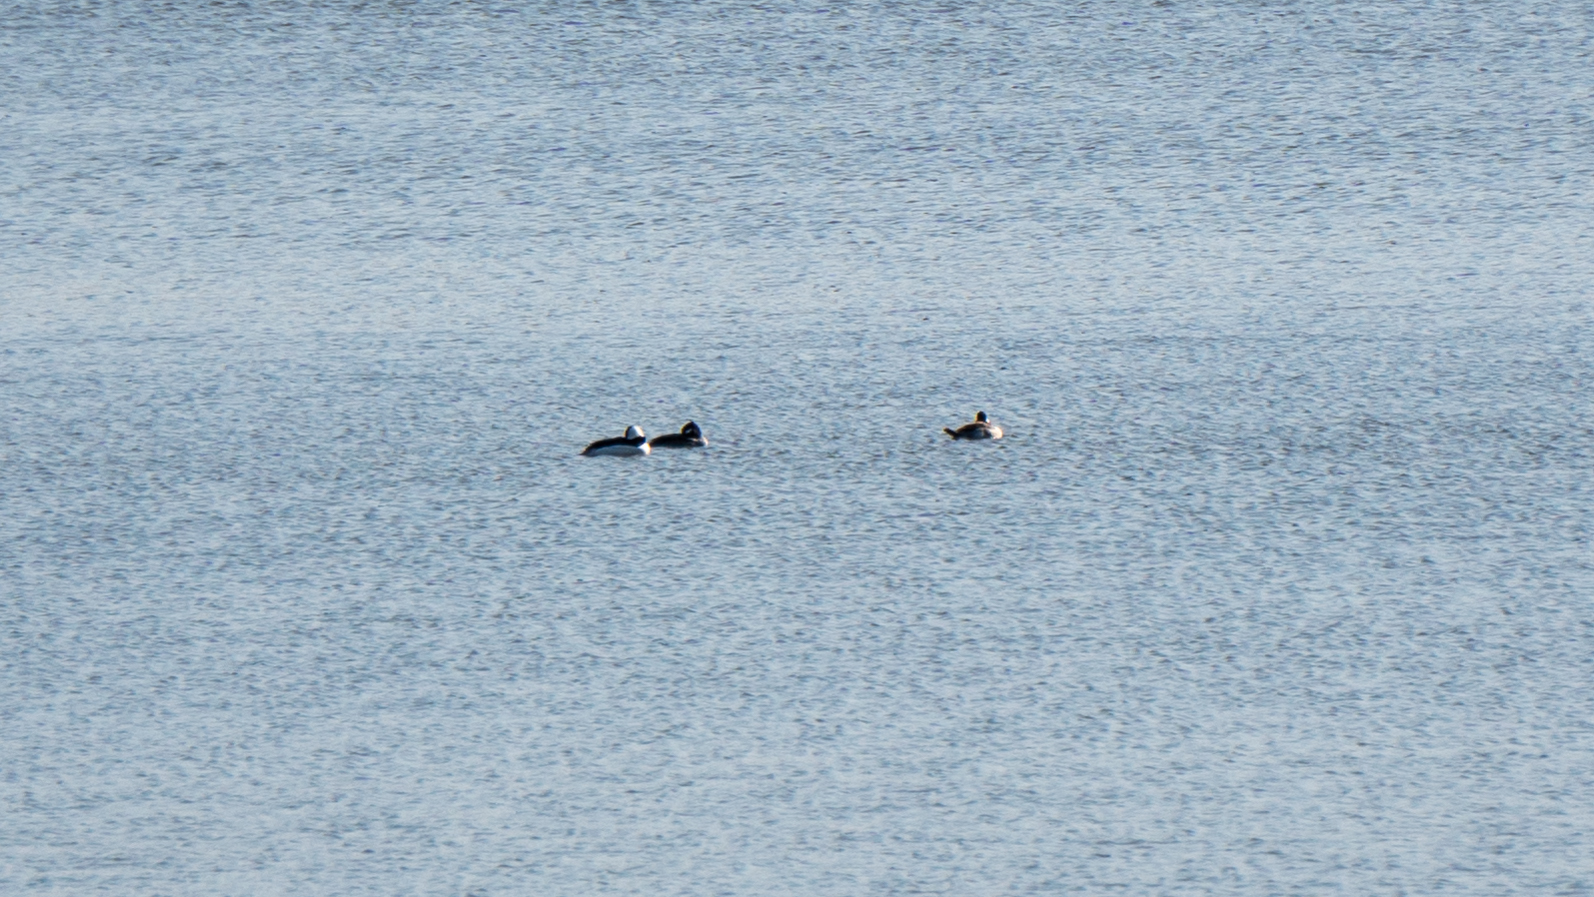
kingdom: Animalia
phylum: Chordata
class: Aves
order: Anseriformes
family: Anatidae
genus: Bucephala
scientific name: Bucephala albeola
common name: Bufflehead
